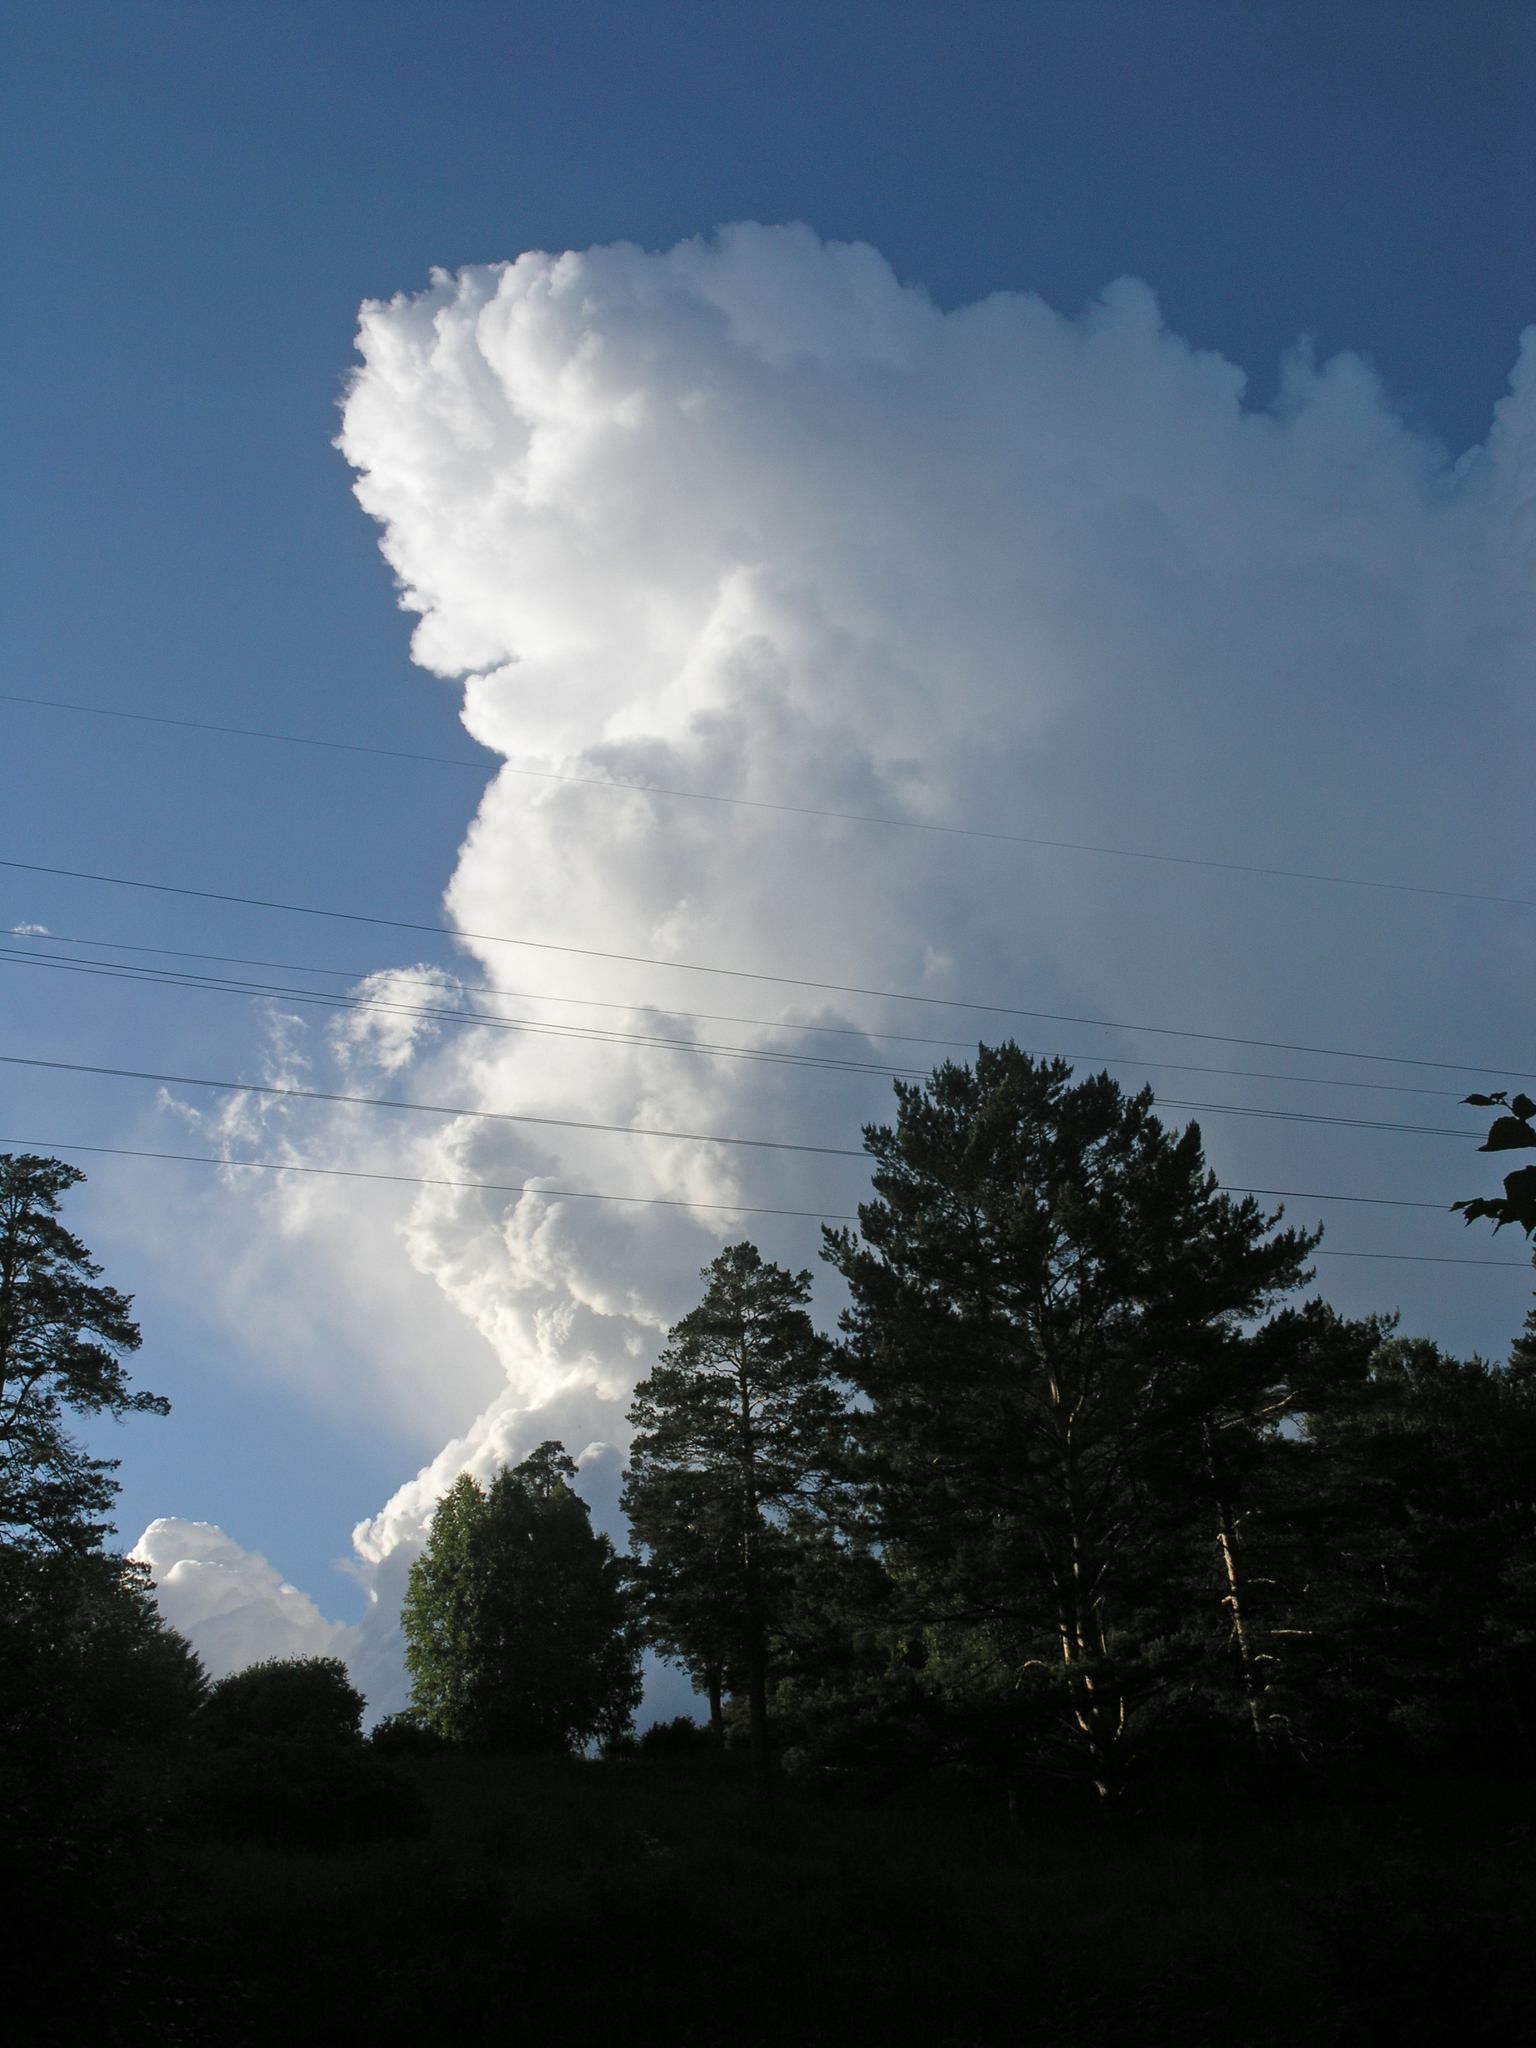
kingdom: Plantae
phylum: Tracheophyta
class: Pinopsida
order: Pinales
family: Pinaceae
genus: Pinus
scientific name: Pinus sylvestris
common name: Scots pine
